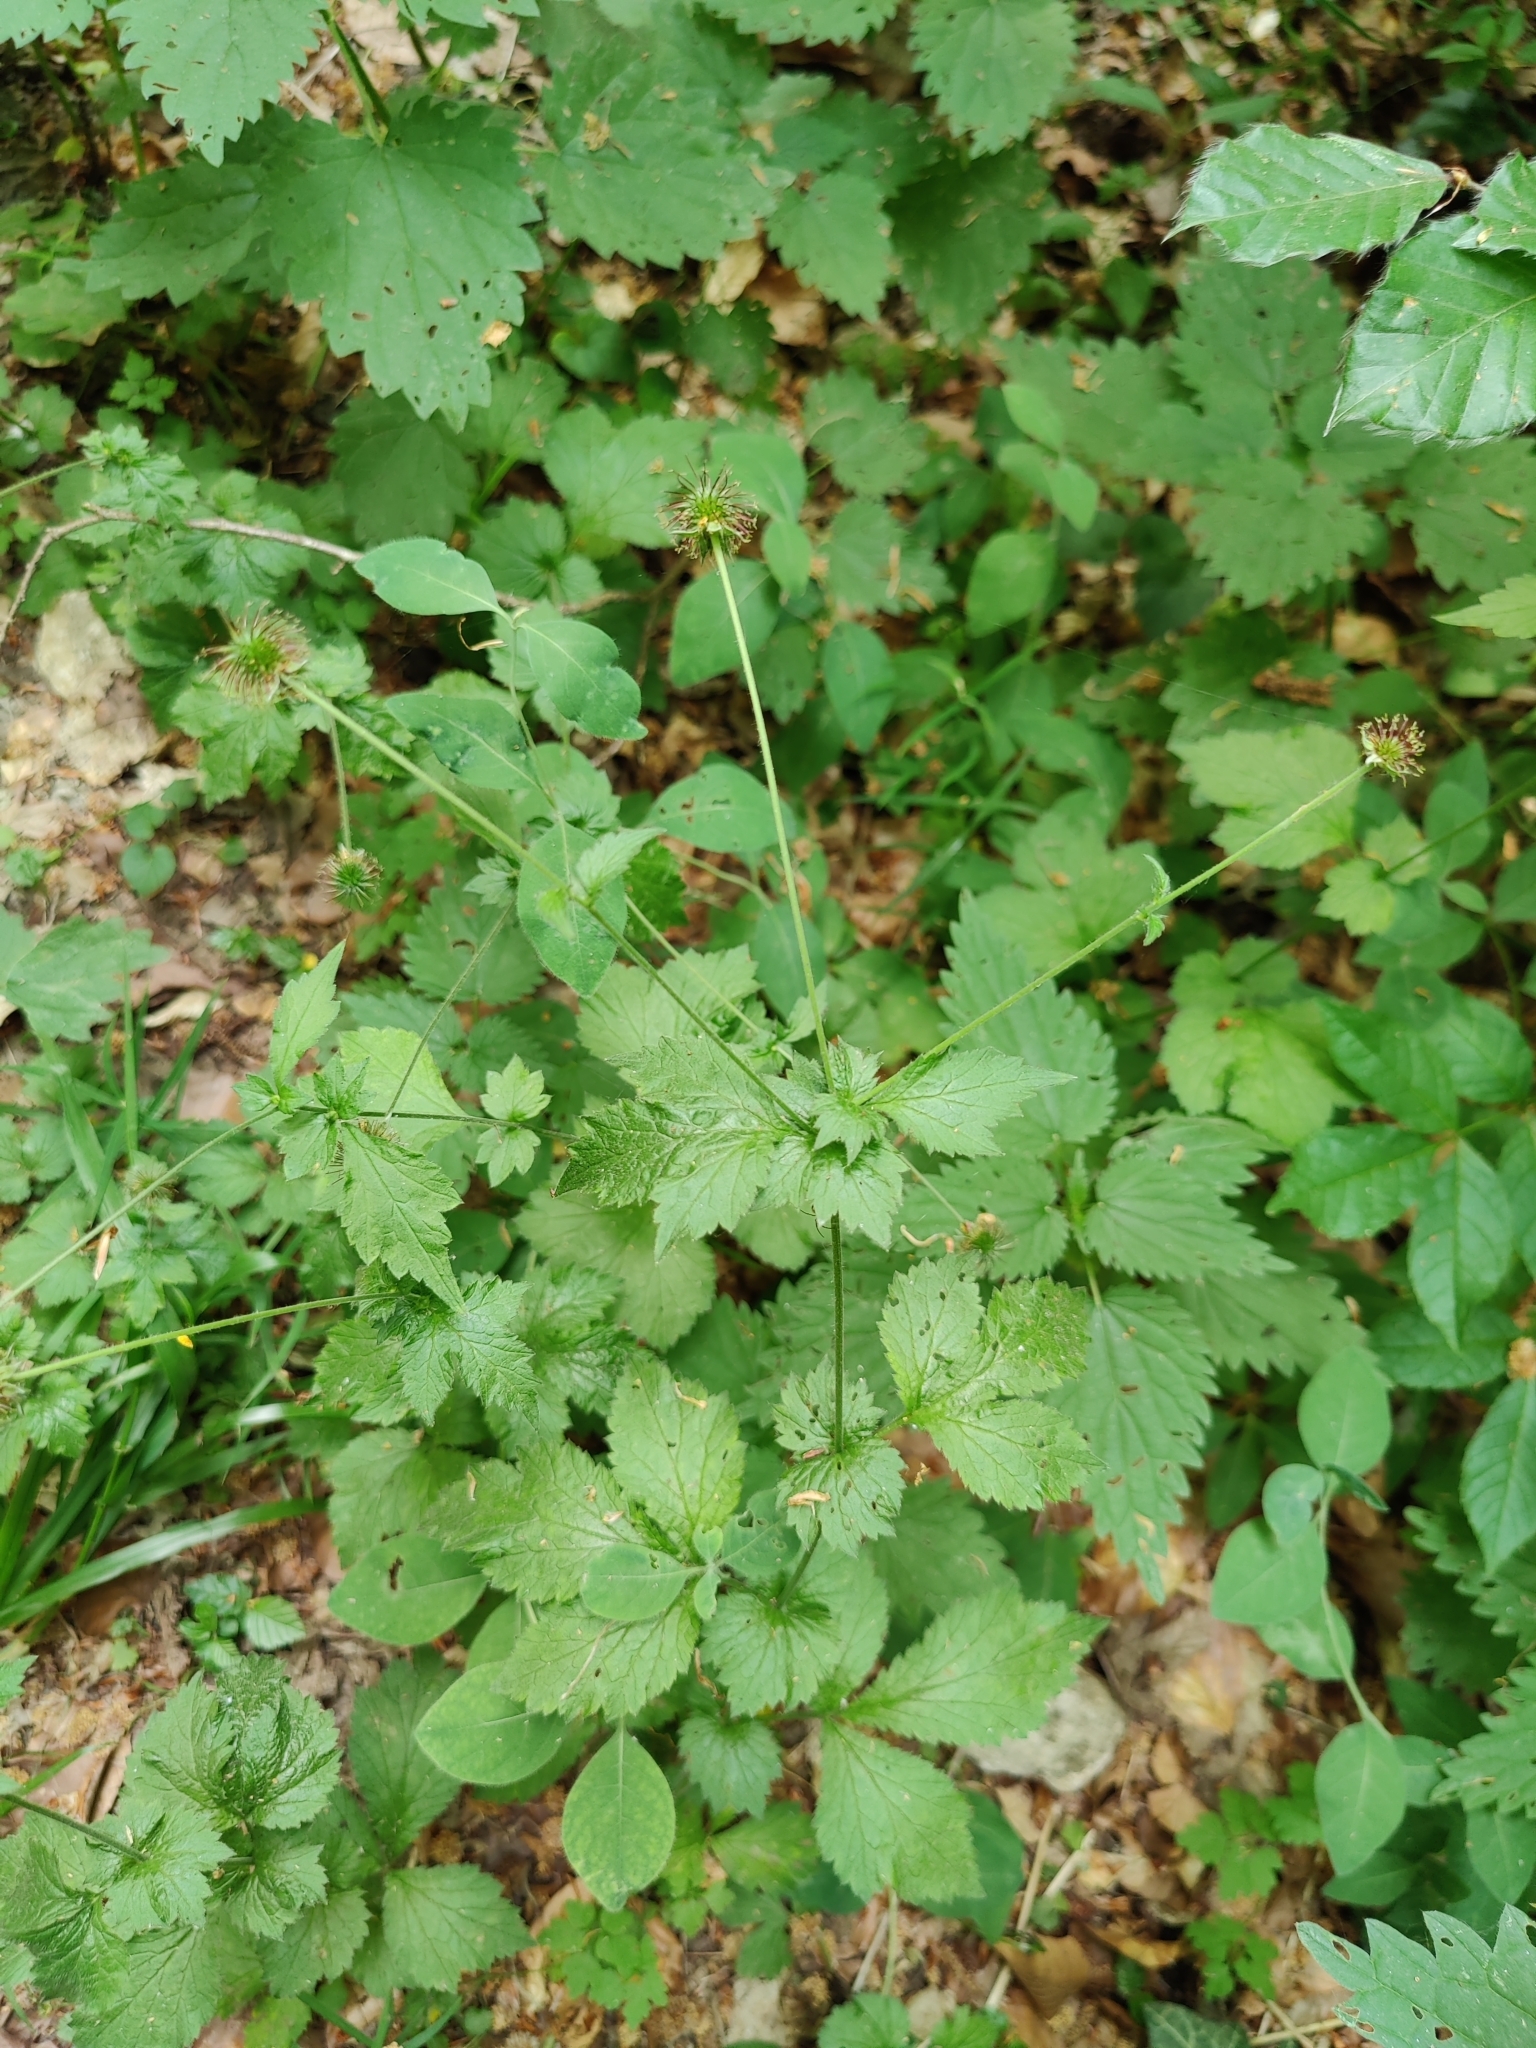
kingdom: Plantae
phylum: Tracheophyta
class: Magnoliopsida
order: Rosales
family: Rosaceae
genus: Geum
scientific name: Geum urbanum
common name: Wood avens
